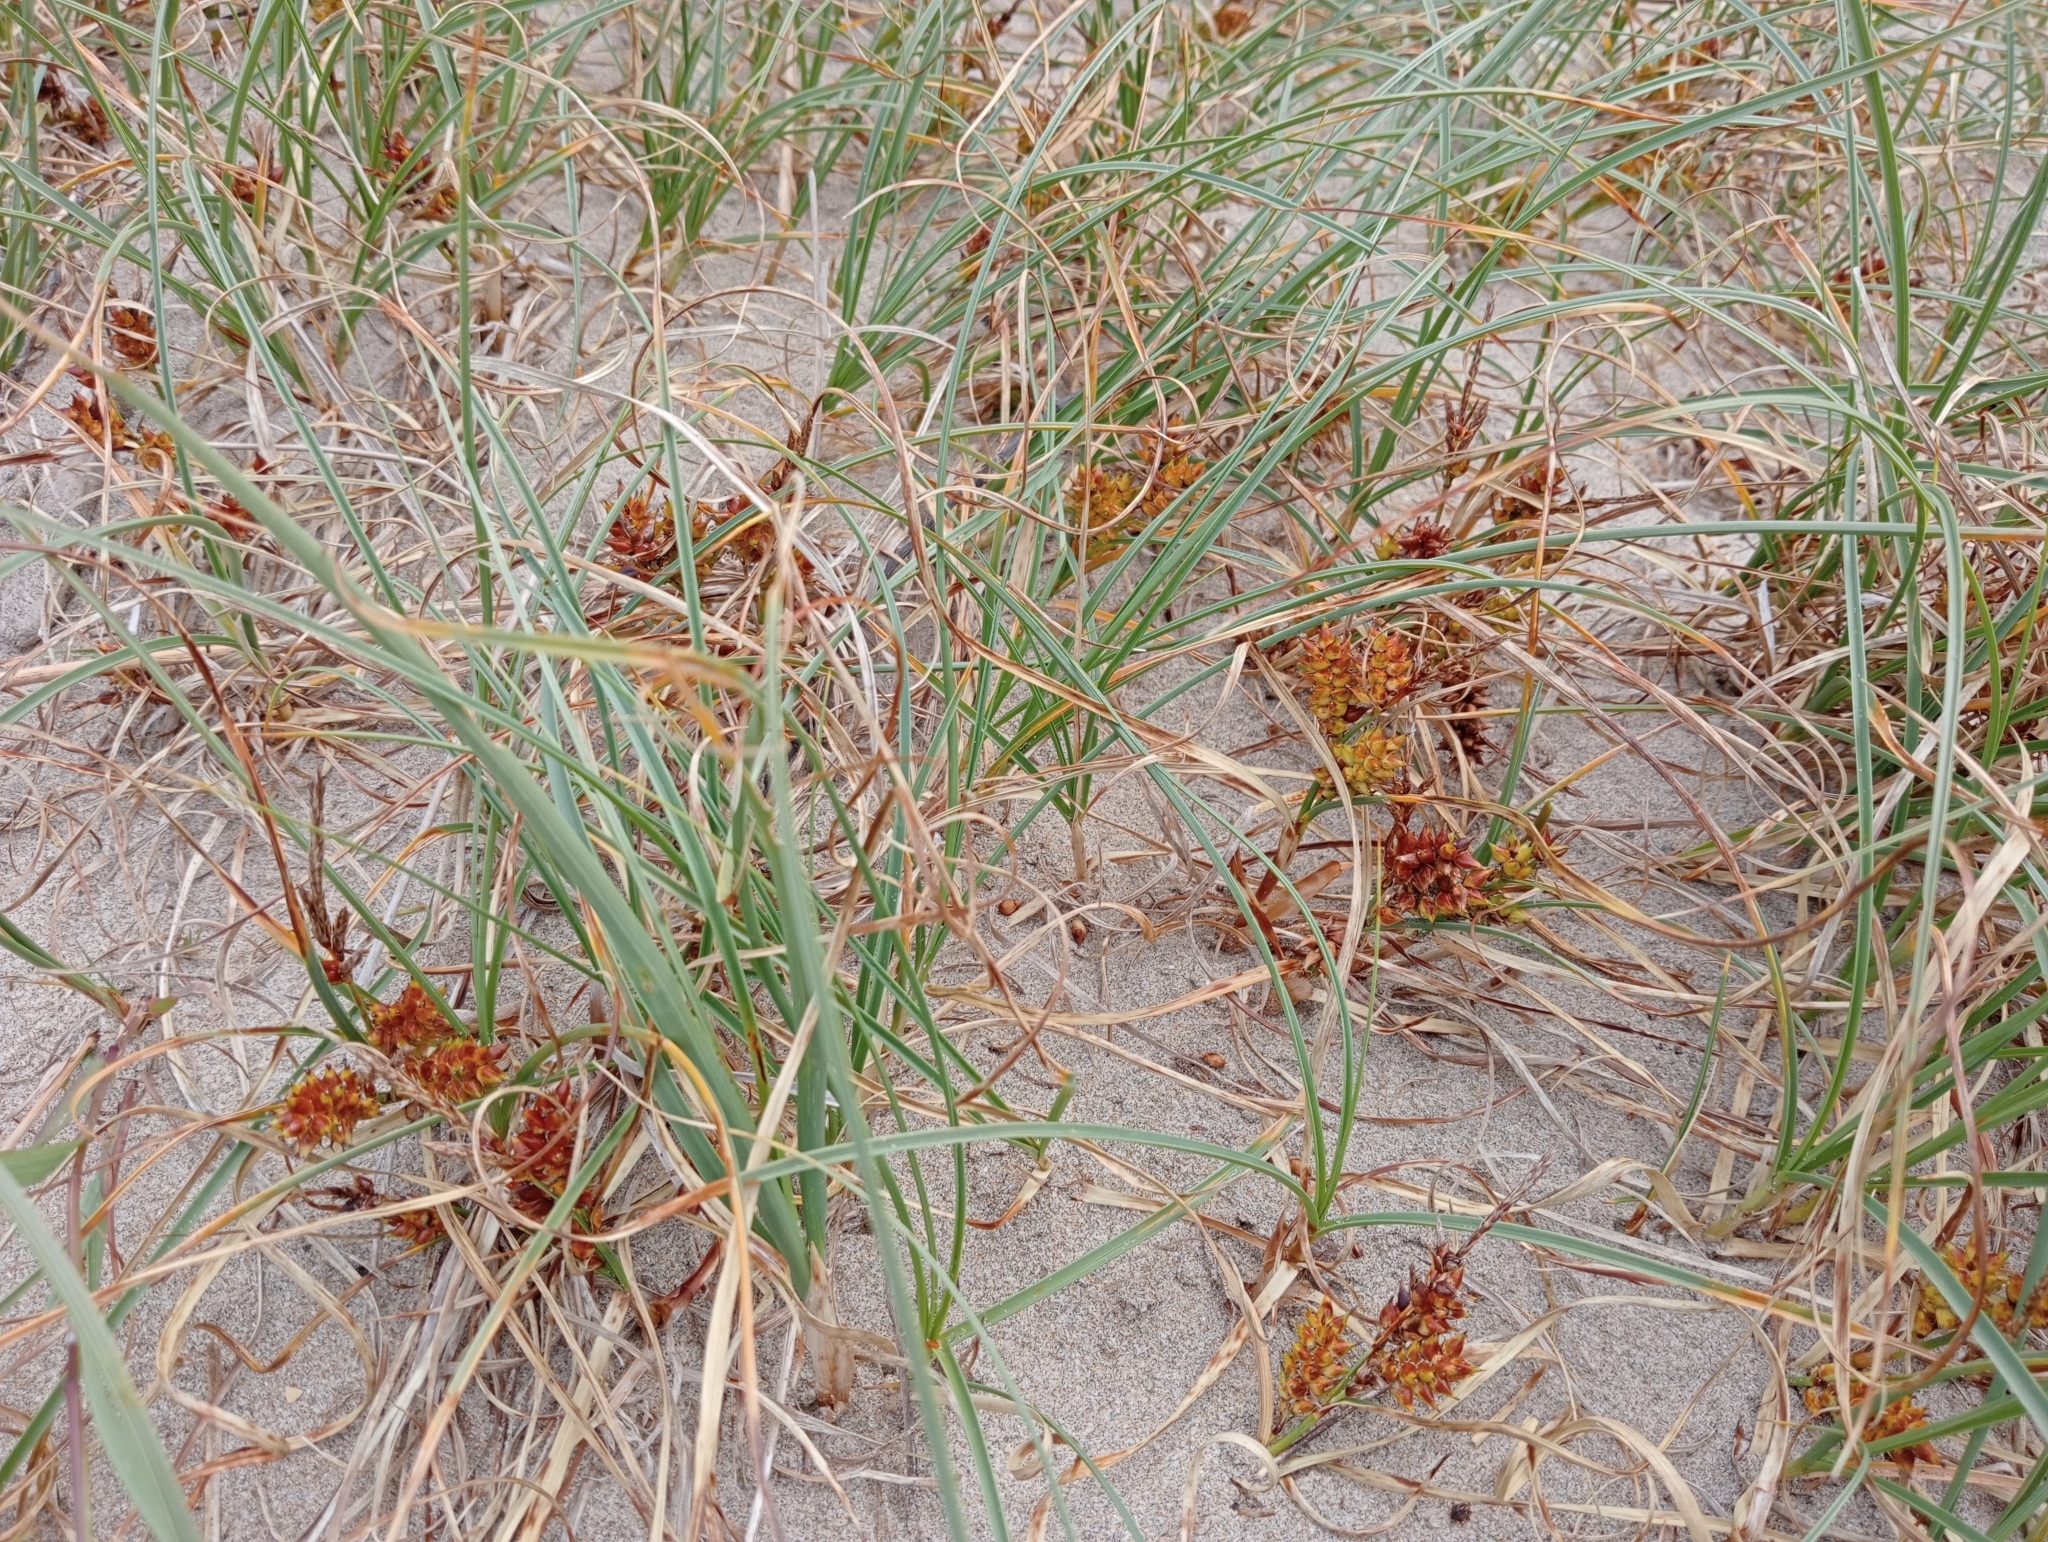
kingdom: Plantae
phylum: Tracheophyta
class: Liliopsida
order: Poales
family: Cyperaceae
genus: Carex
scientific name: Carex pumila
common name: Dwarf sedge
